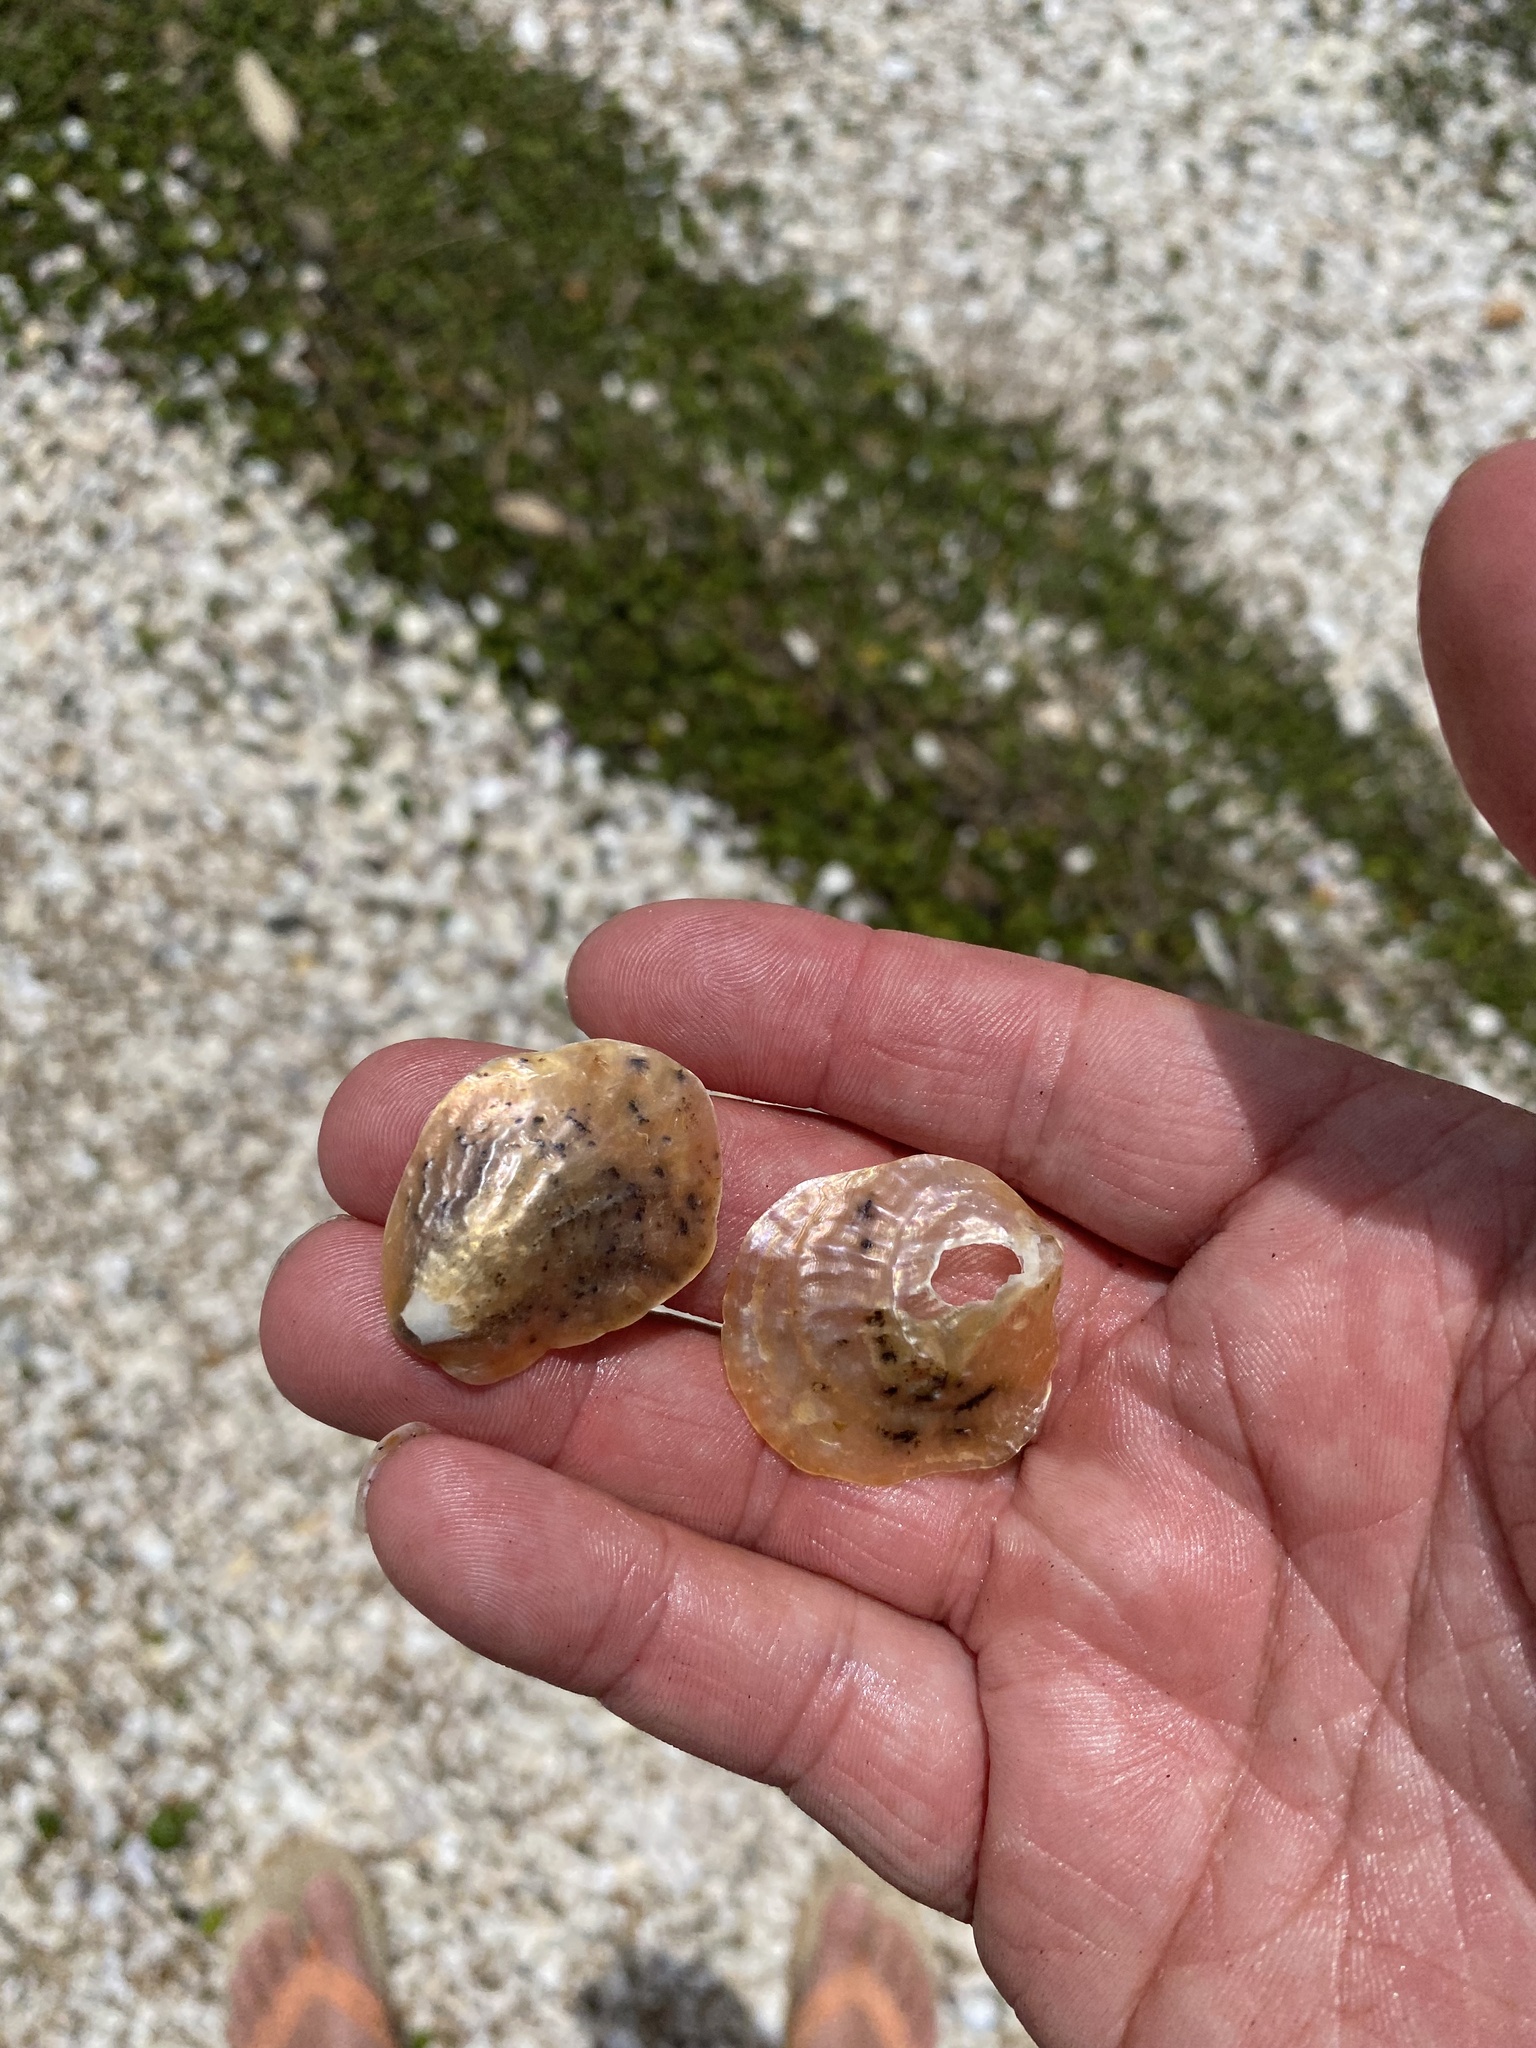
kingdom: Animalia
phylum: Mollusca
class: Bivalvia
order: Pectinida
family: Anomiidae
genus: Anomia
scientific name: Anomia trigonopsis
